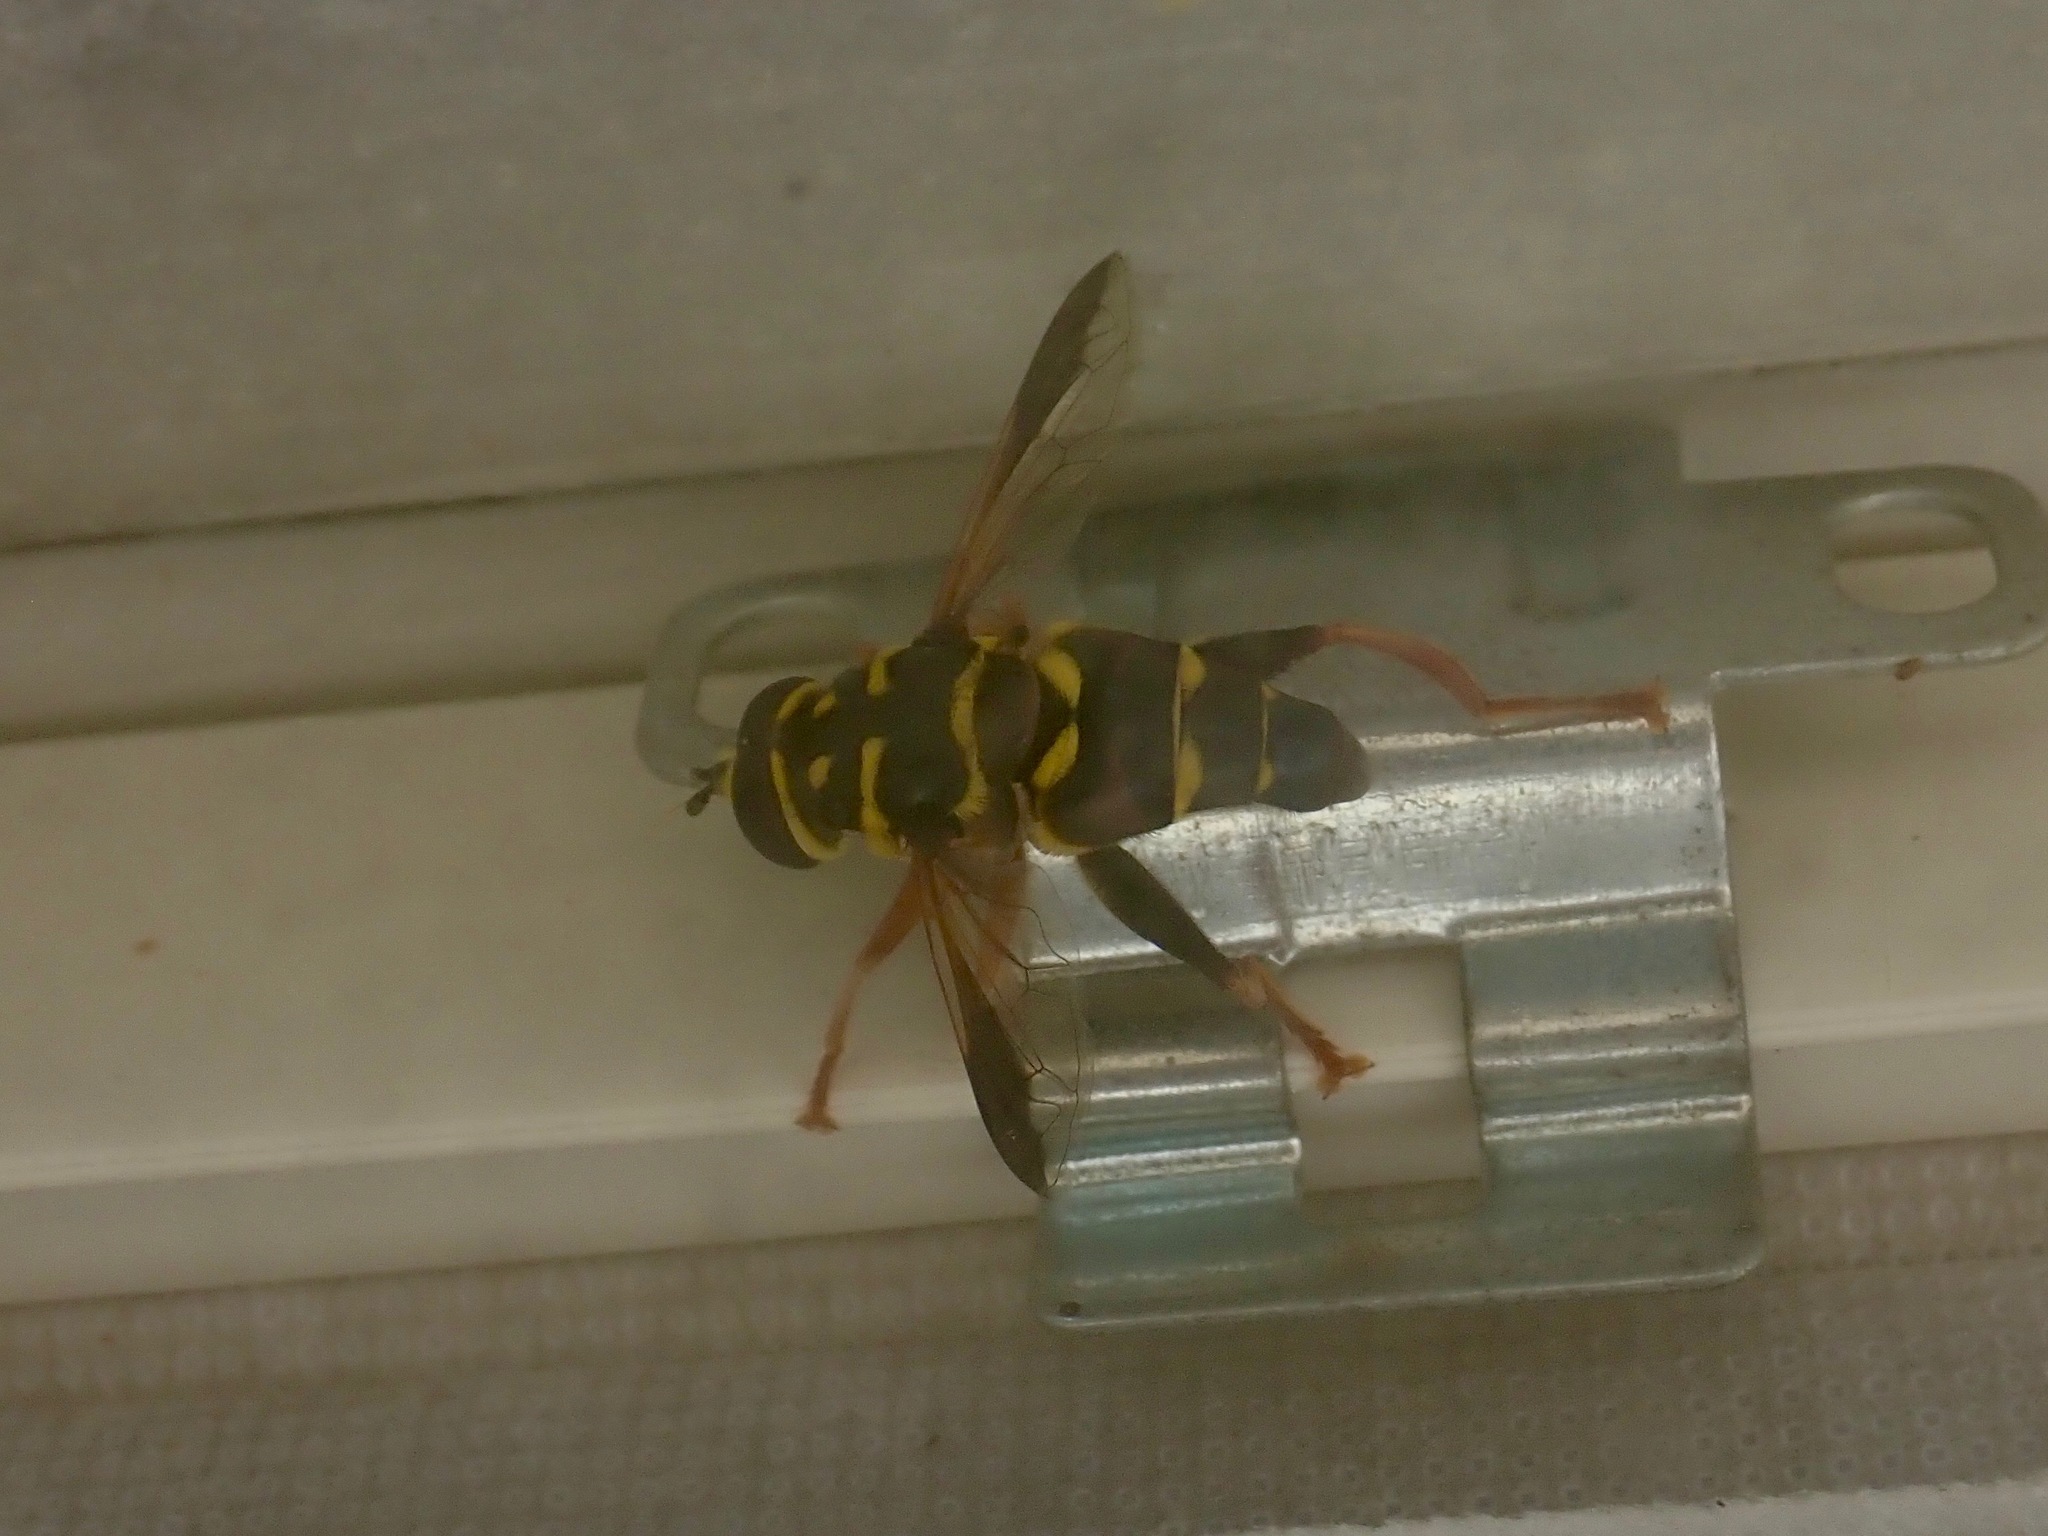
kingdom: Animalia
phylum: Arthropoda
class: Insecta
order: Diptera
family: Syrphidae
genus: Meromacrus
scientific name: Meromacrus acutus
